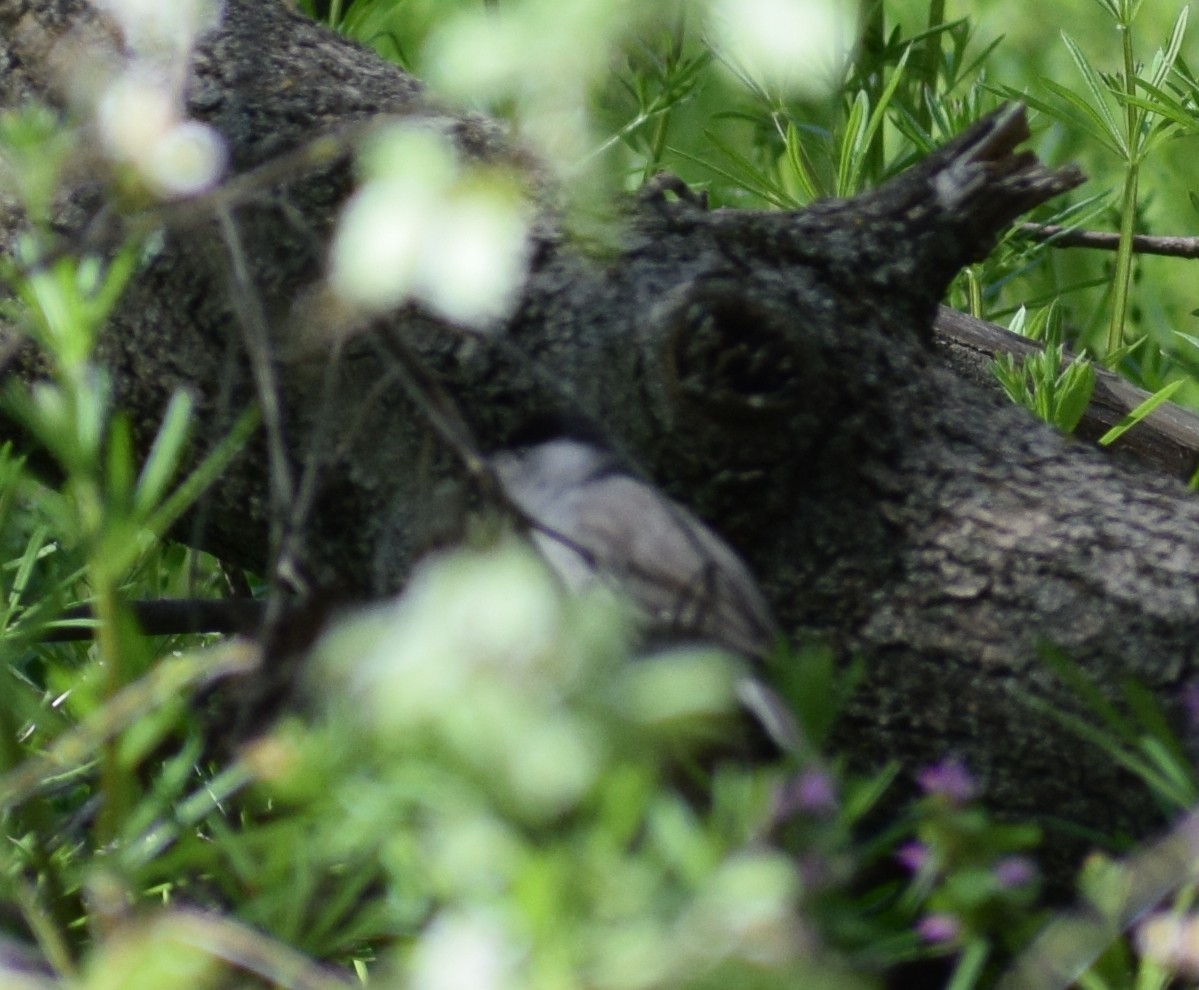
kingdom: Animalia
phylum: Chordata
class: Aves
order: Passeriformes
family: Sylviidae
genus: Sylvia
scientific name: Sylvia atricapilla
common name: Eurasian blackcap
